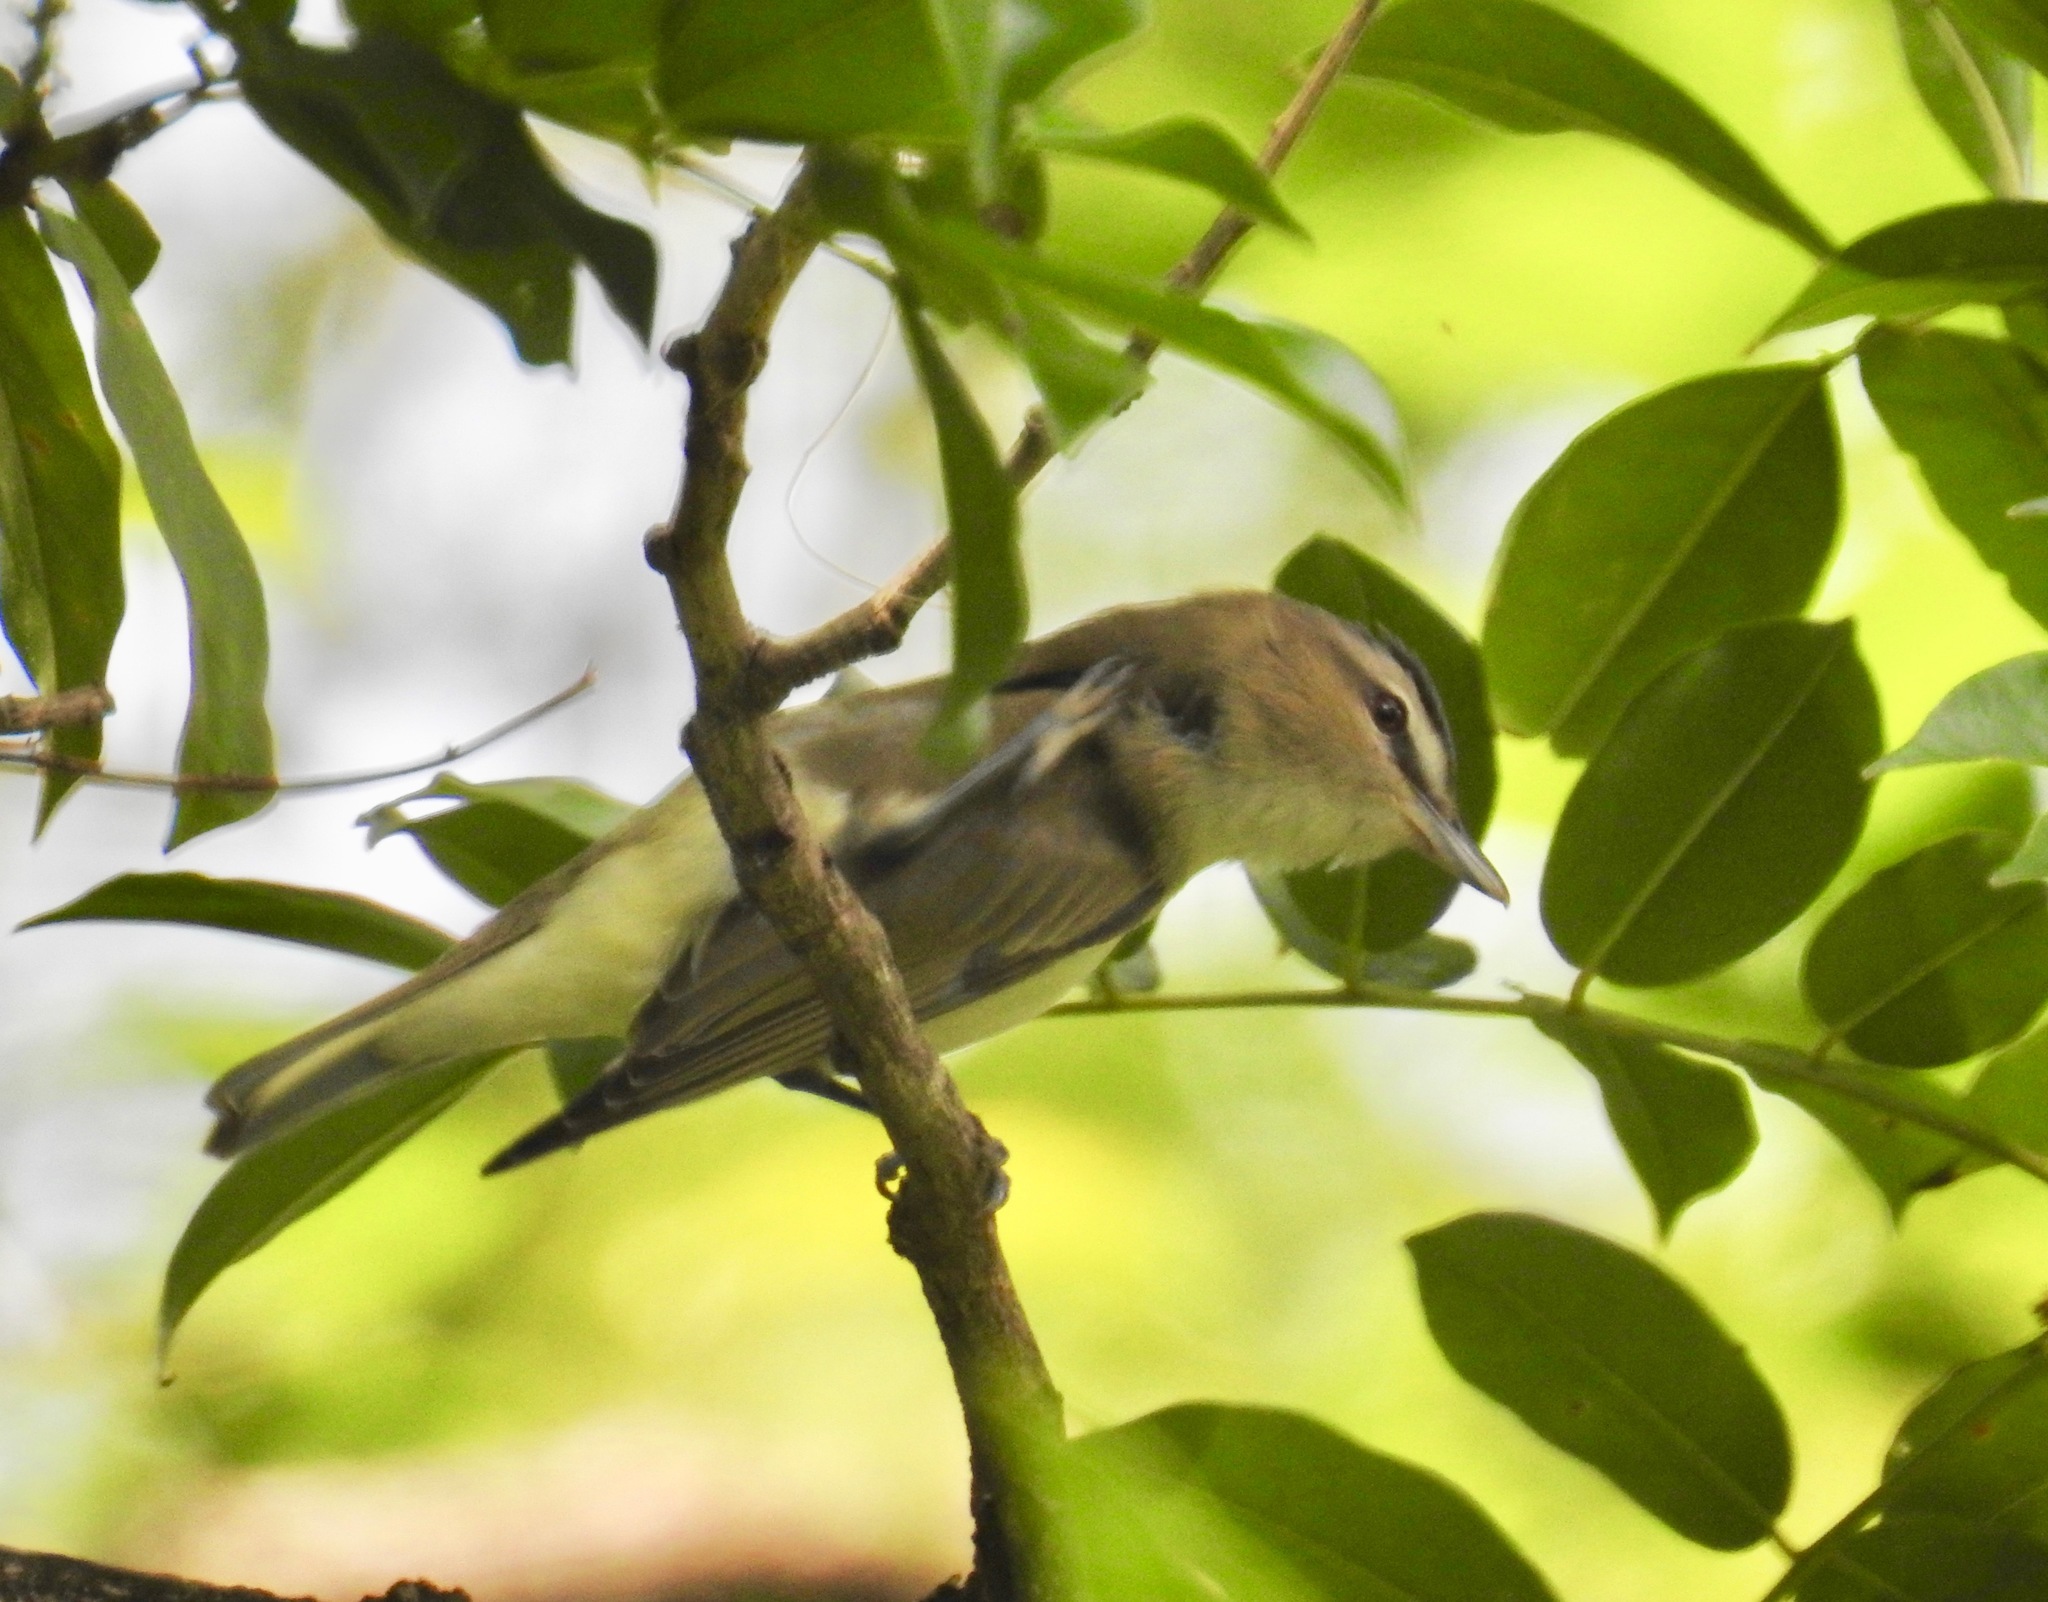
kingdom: Animalia
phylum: Chordata
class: Aves
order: Passeriformes
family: Vireonidae
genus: Vireo
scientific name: Vireo olivaceus
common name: Red-eyed vireo
